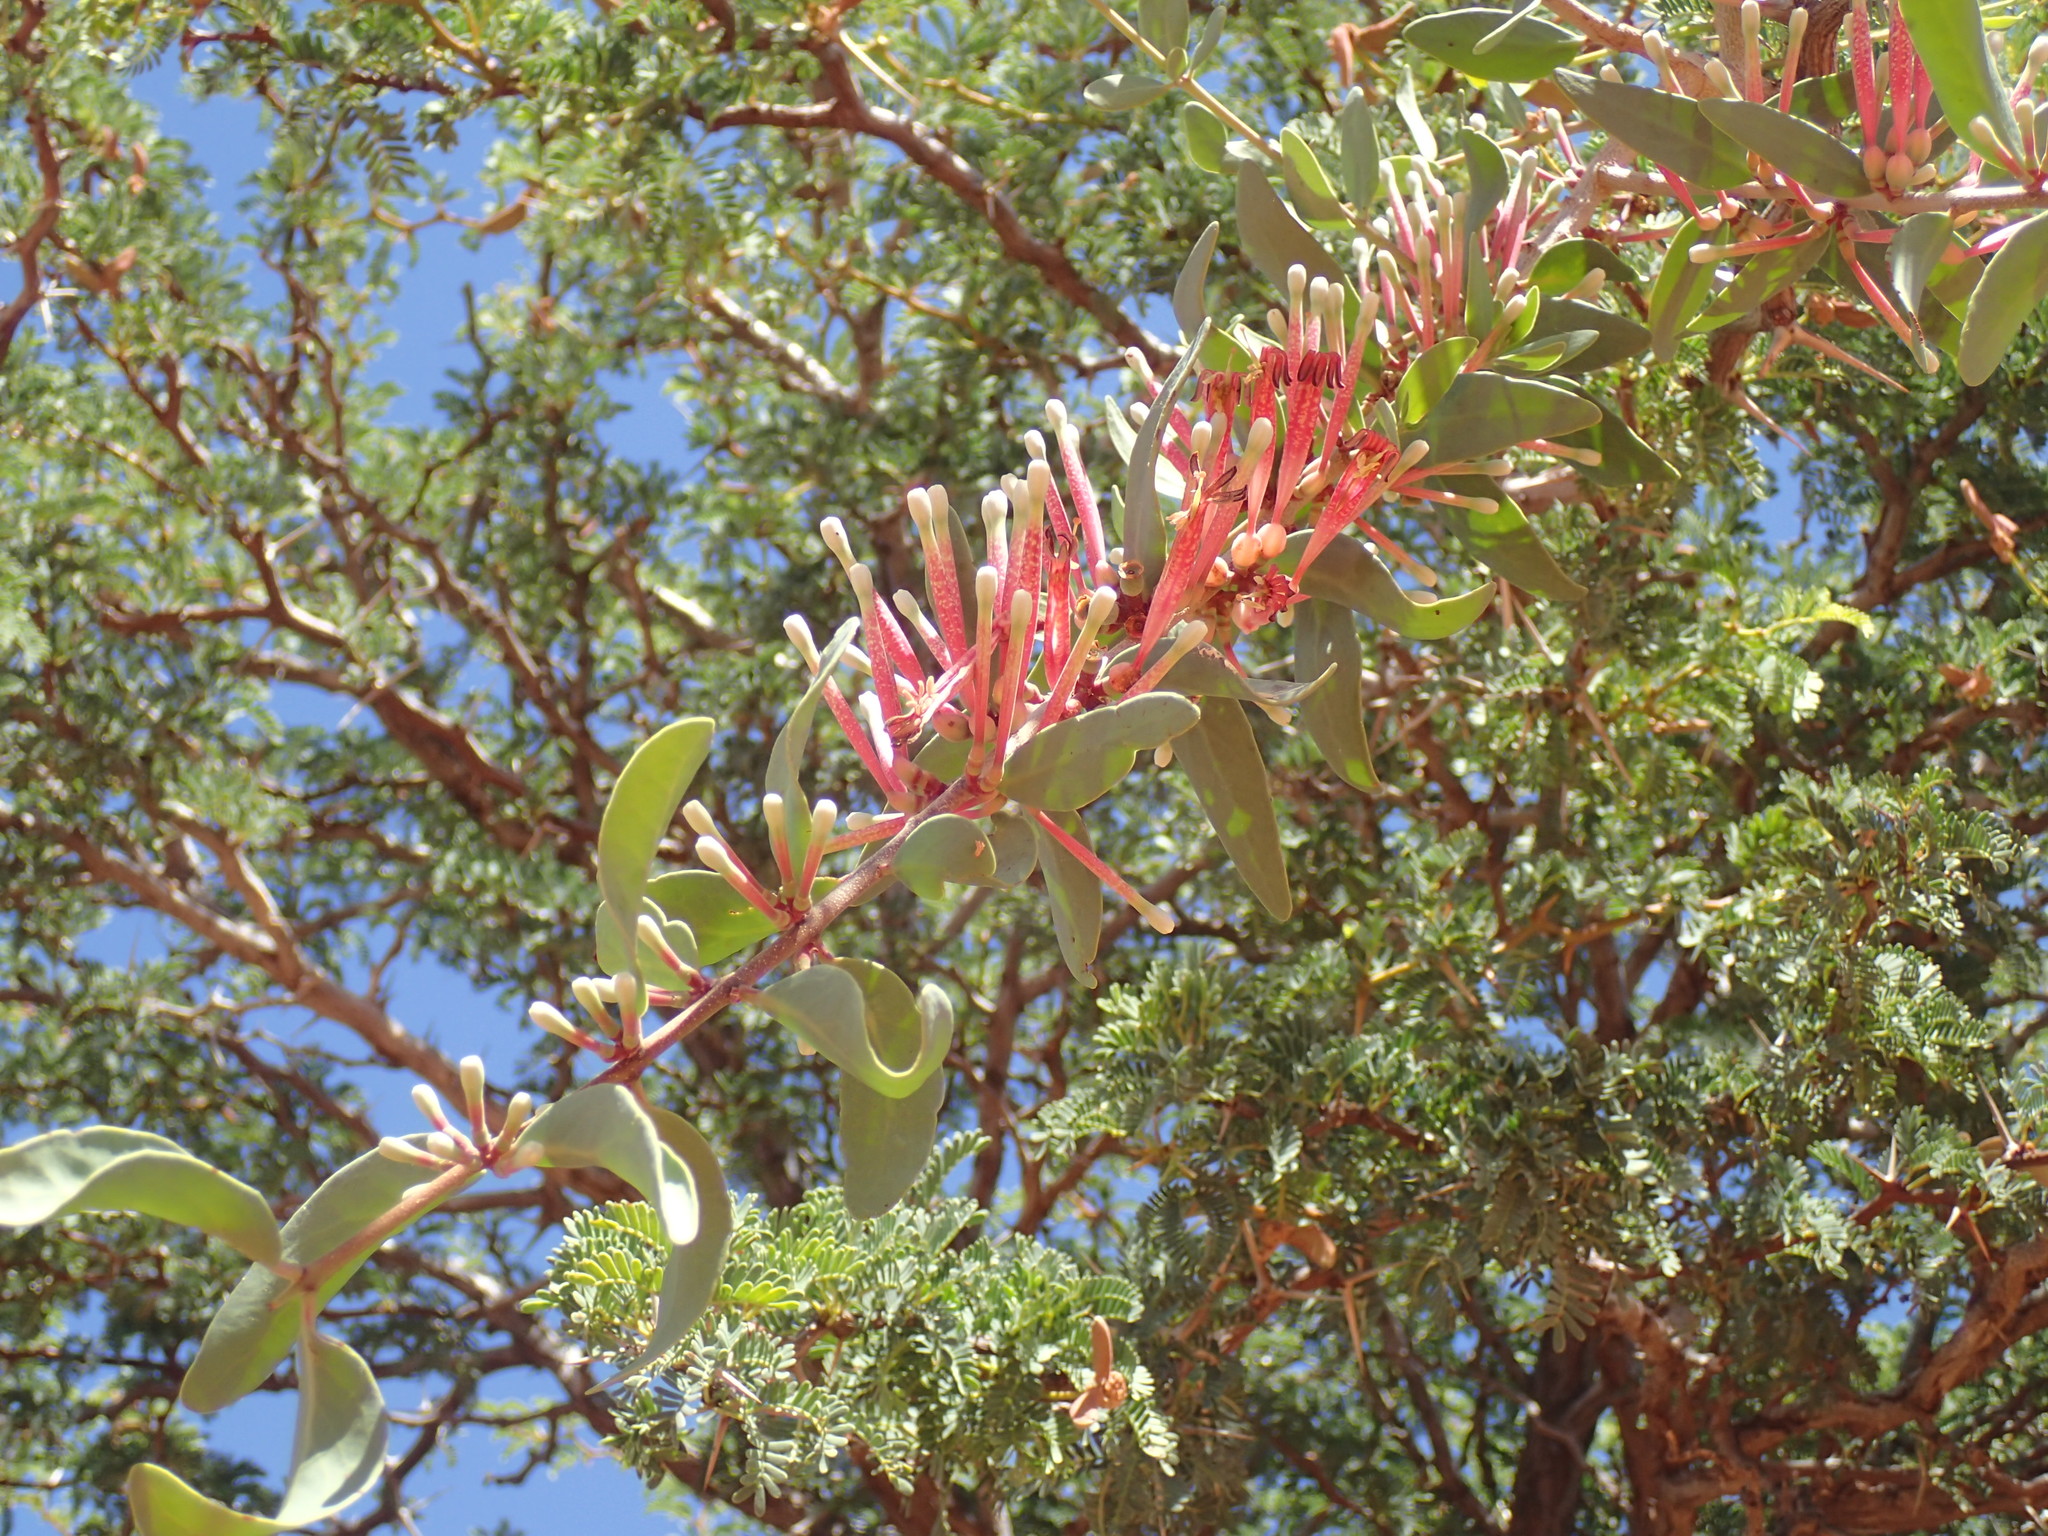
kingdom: Plantae
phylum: Tracheophyta
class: Magnoliopsida
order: Santalales
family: Loranthaceae
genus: Tapinanthus
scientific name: Tapinanthus oleifolius
